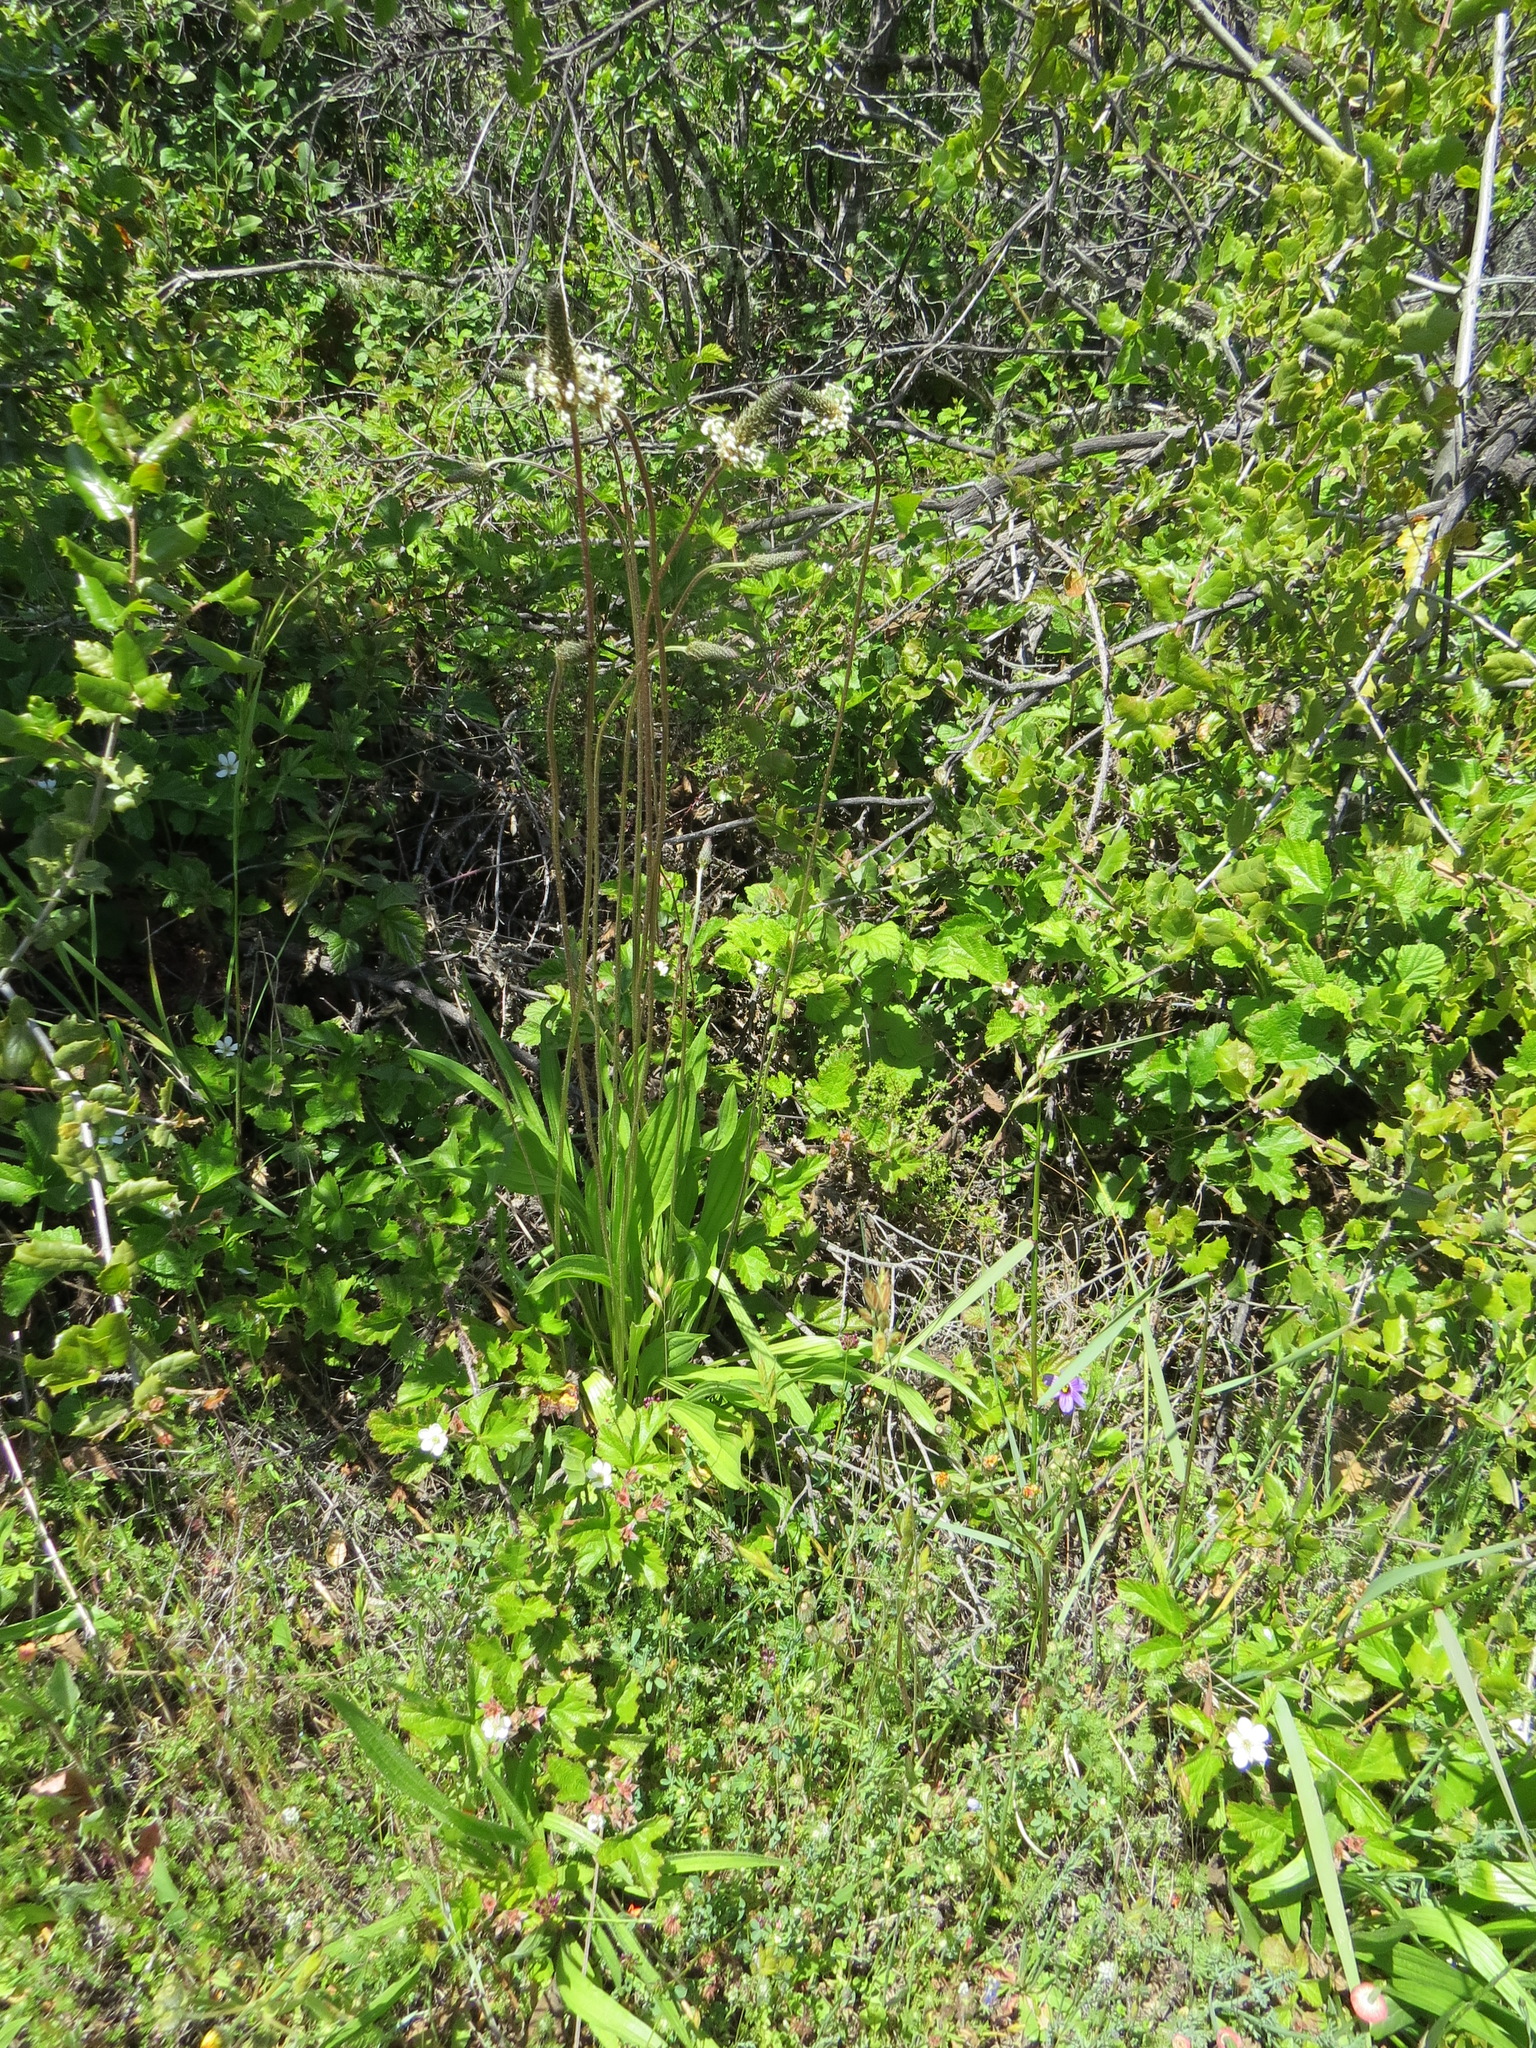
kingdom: Plantae
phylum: Tracheophyta
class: Magnoliopsida
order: Lamiales
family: Plantaginaceae
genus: Plantago
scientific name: Plantago lanceolata
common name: Ribwort plantain
